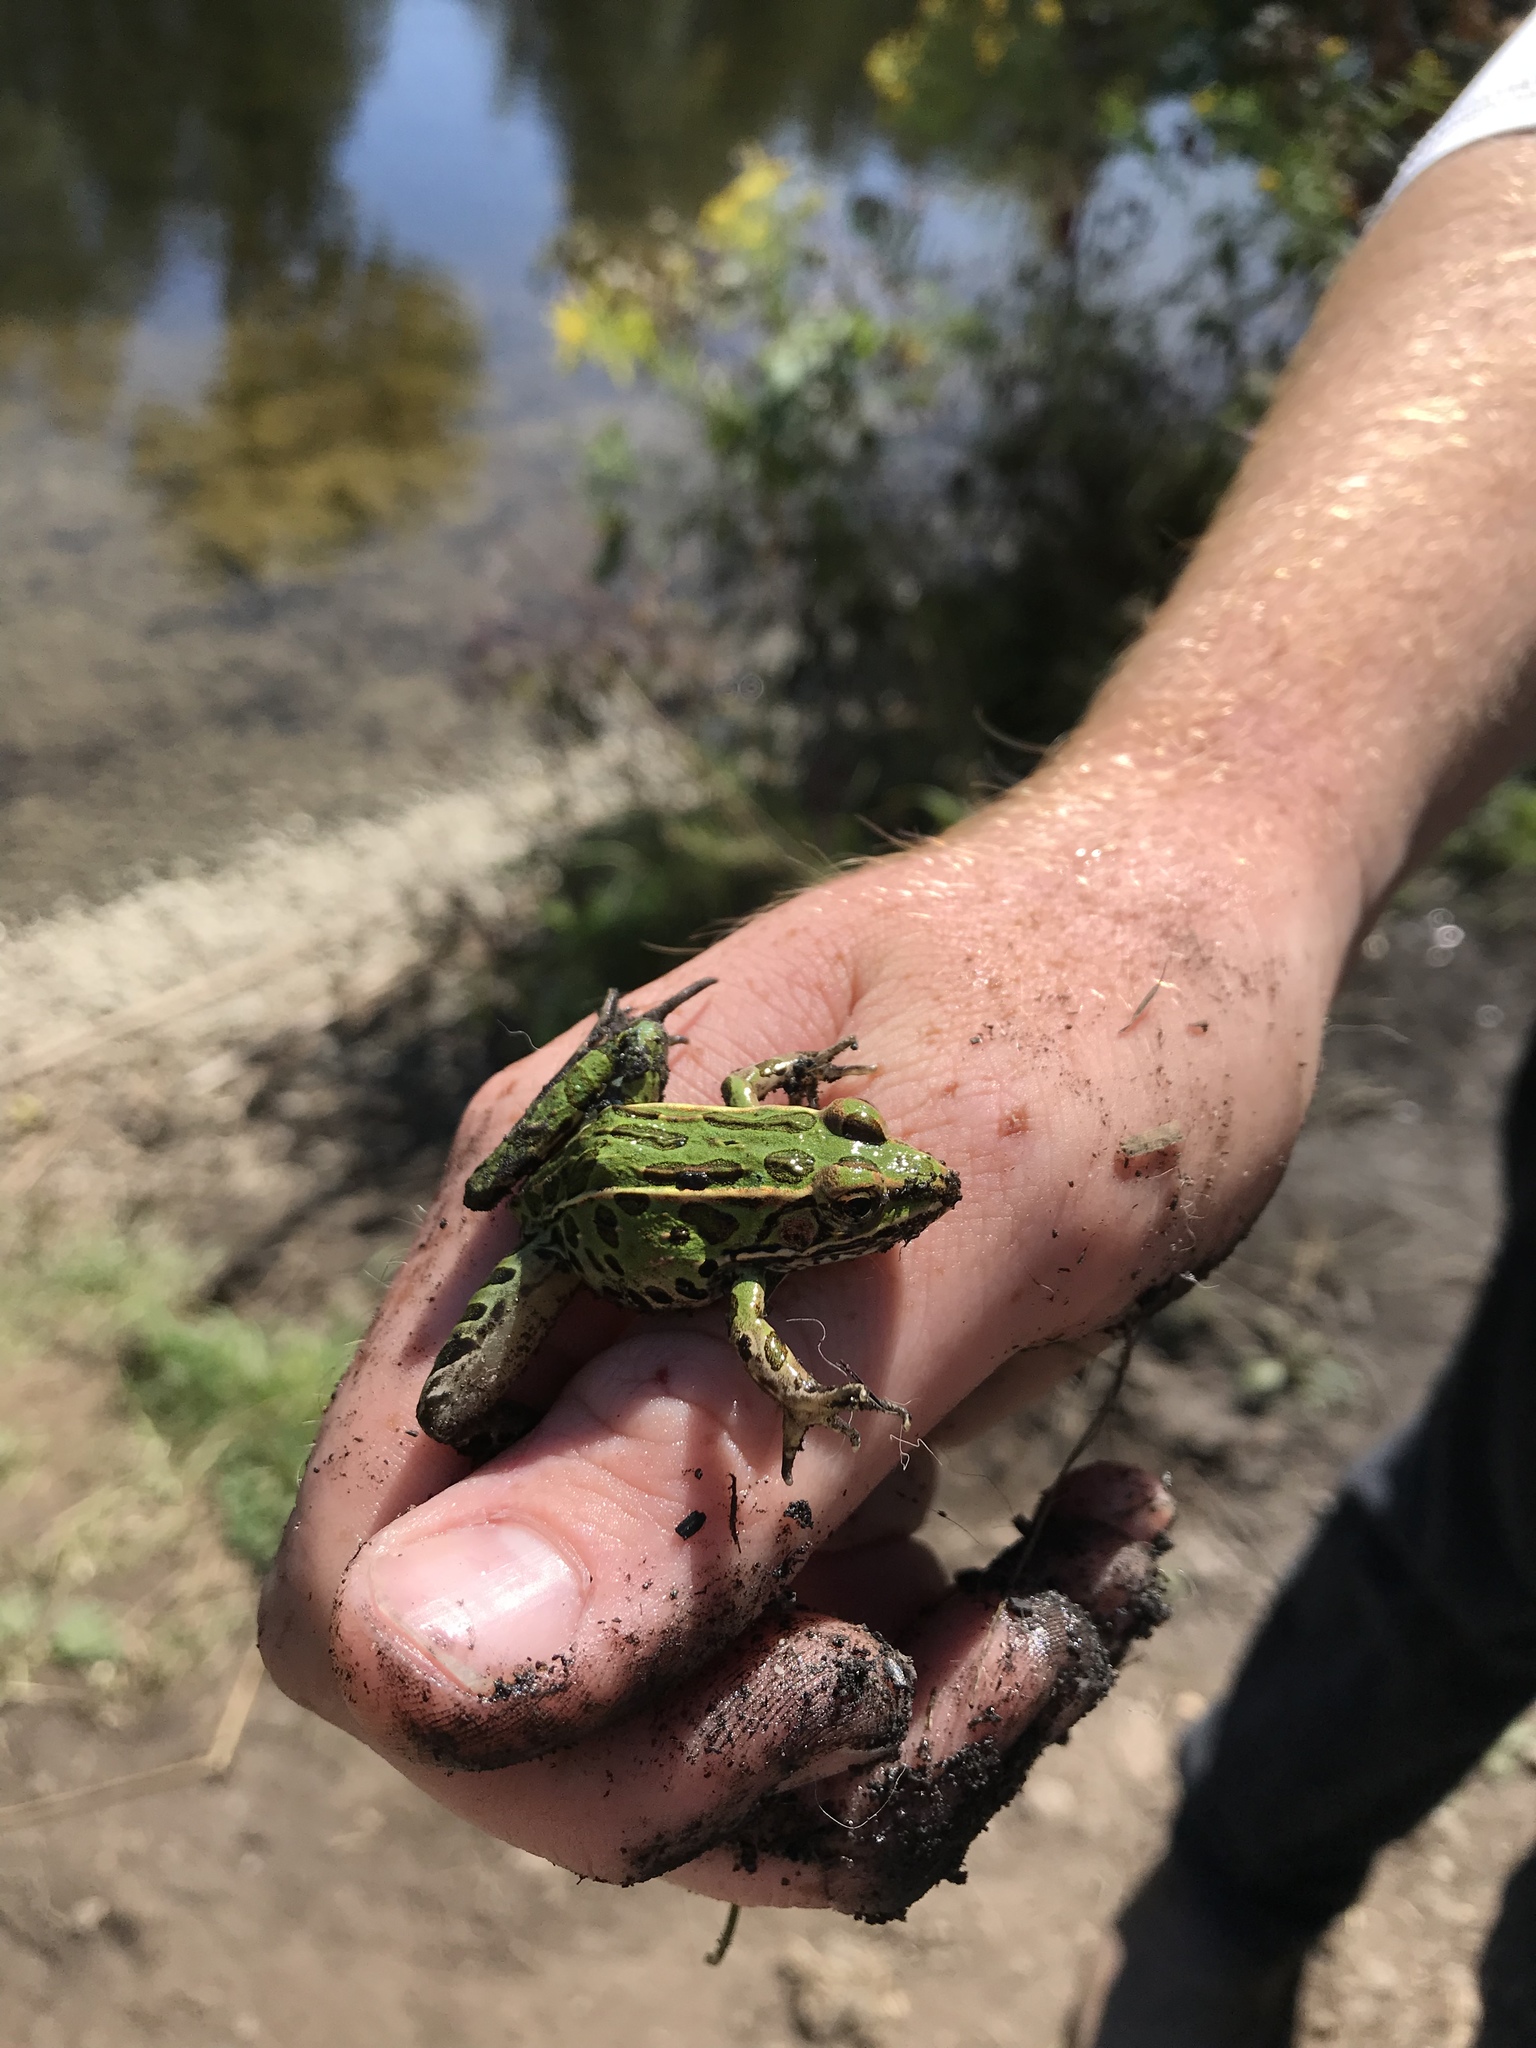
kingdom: Animalia
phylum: Chordata
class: Amphibia
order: Anura
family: Ranidae
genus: Lithobates
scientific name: Lithobates pipiens
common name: Northern leopard frog
